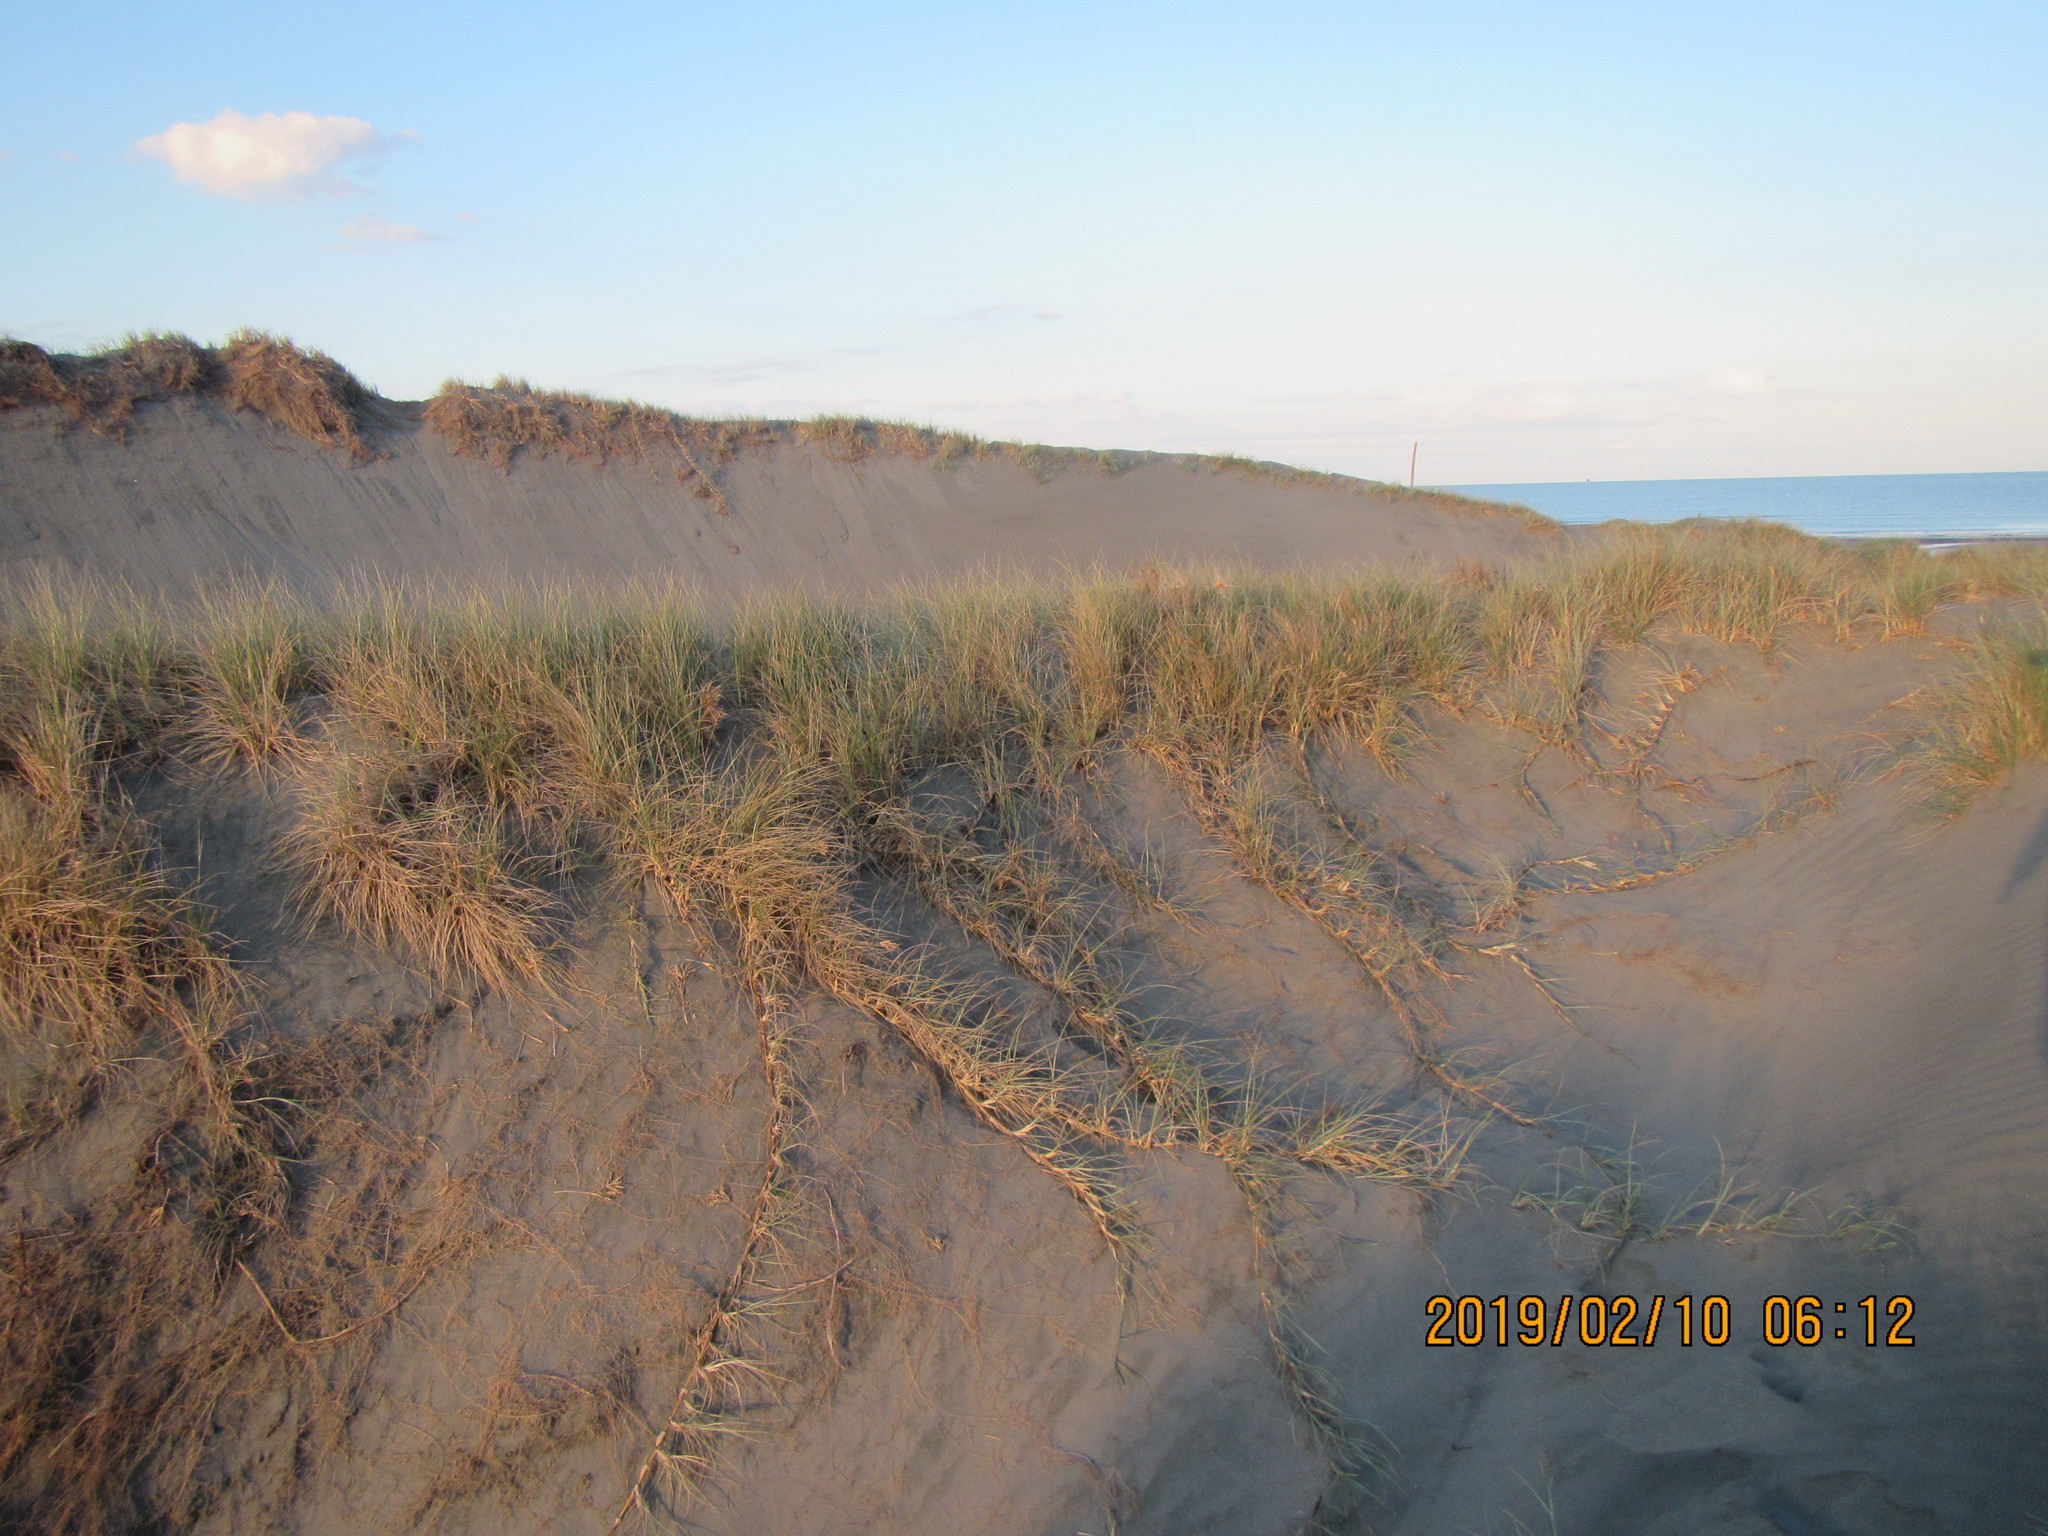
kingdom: Plantae
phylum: Tracheophyta
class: Liliopsida
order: Poales
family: Poaceae
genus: Spinifex
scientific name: Spinifex sericeus
